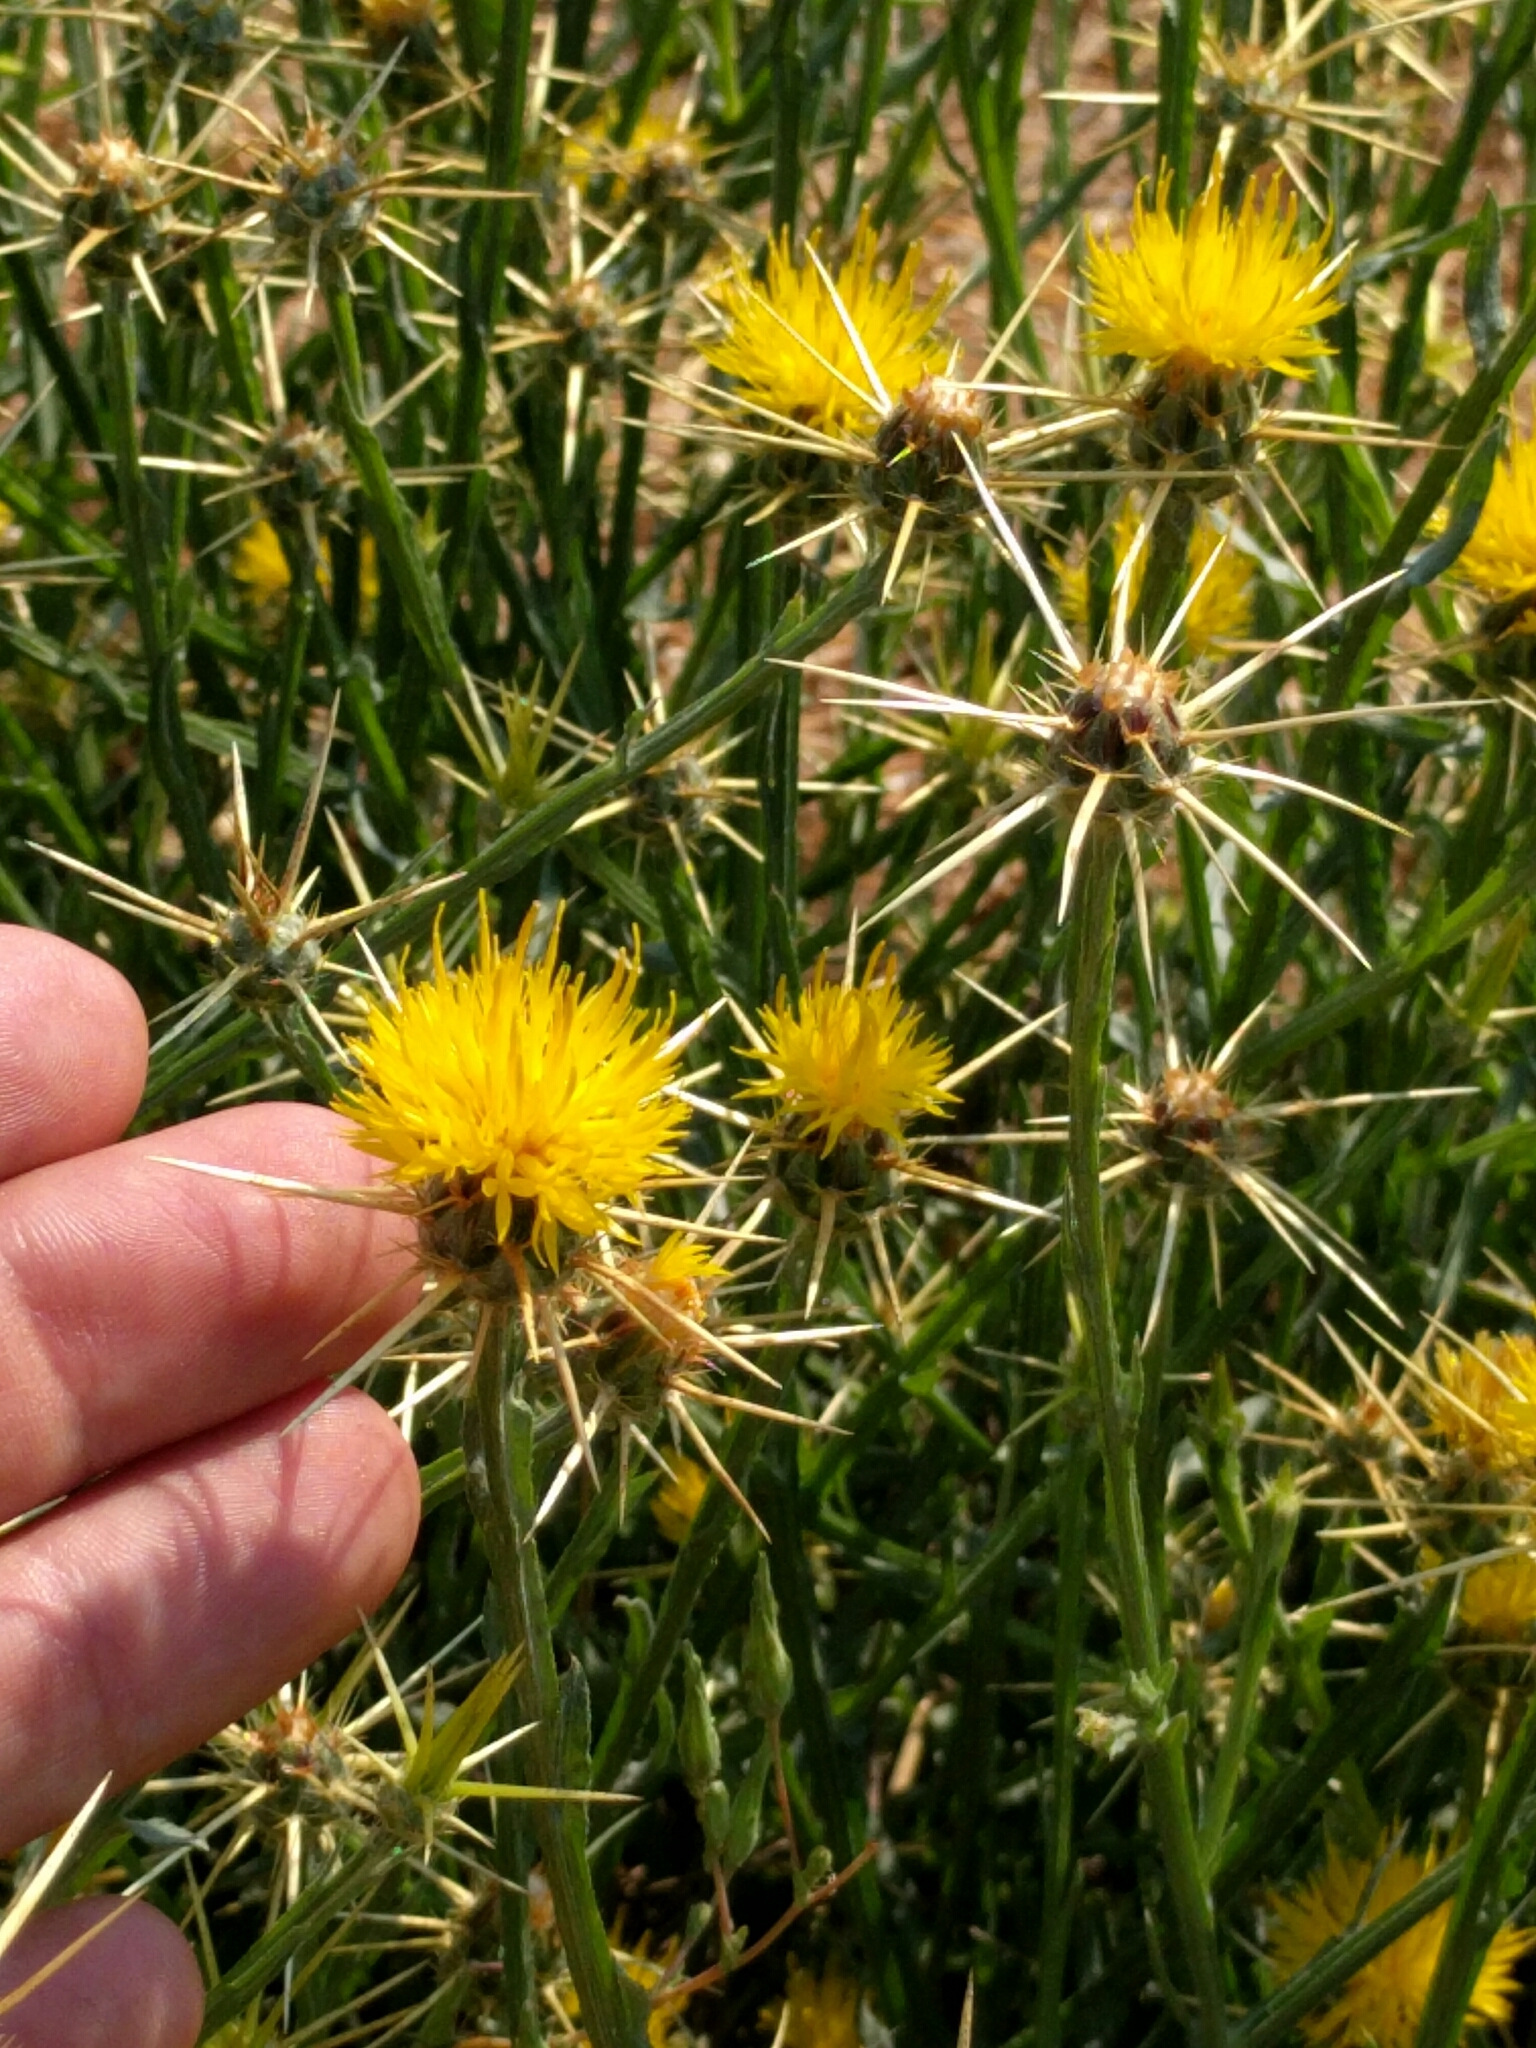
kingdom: Plantae
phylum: Tracheophyta
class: Magnoliopsida
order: Asterales
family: Asteraceae
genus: Centaurea
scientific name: Centaurea solstitialis
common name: Yellow star-thistle
